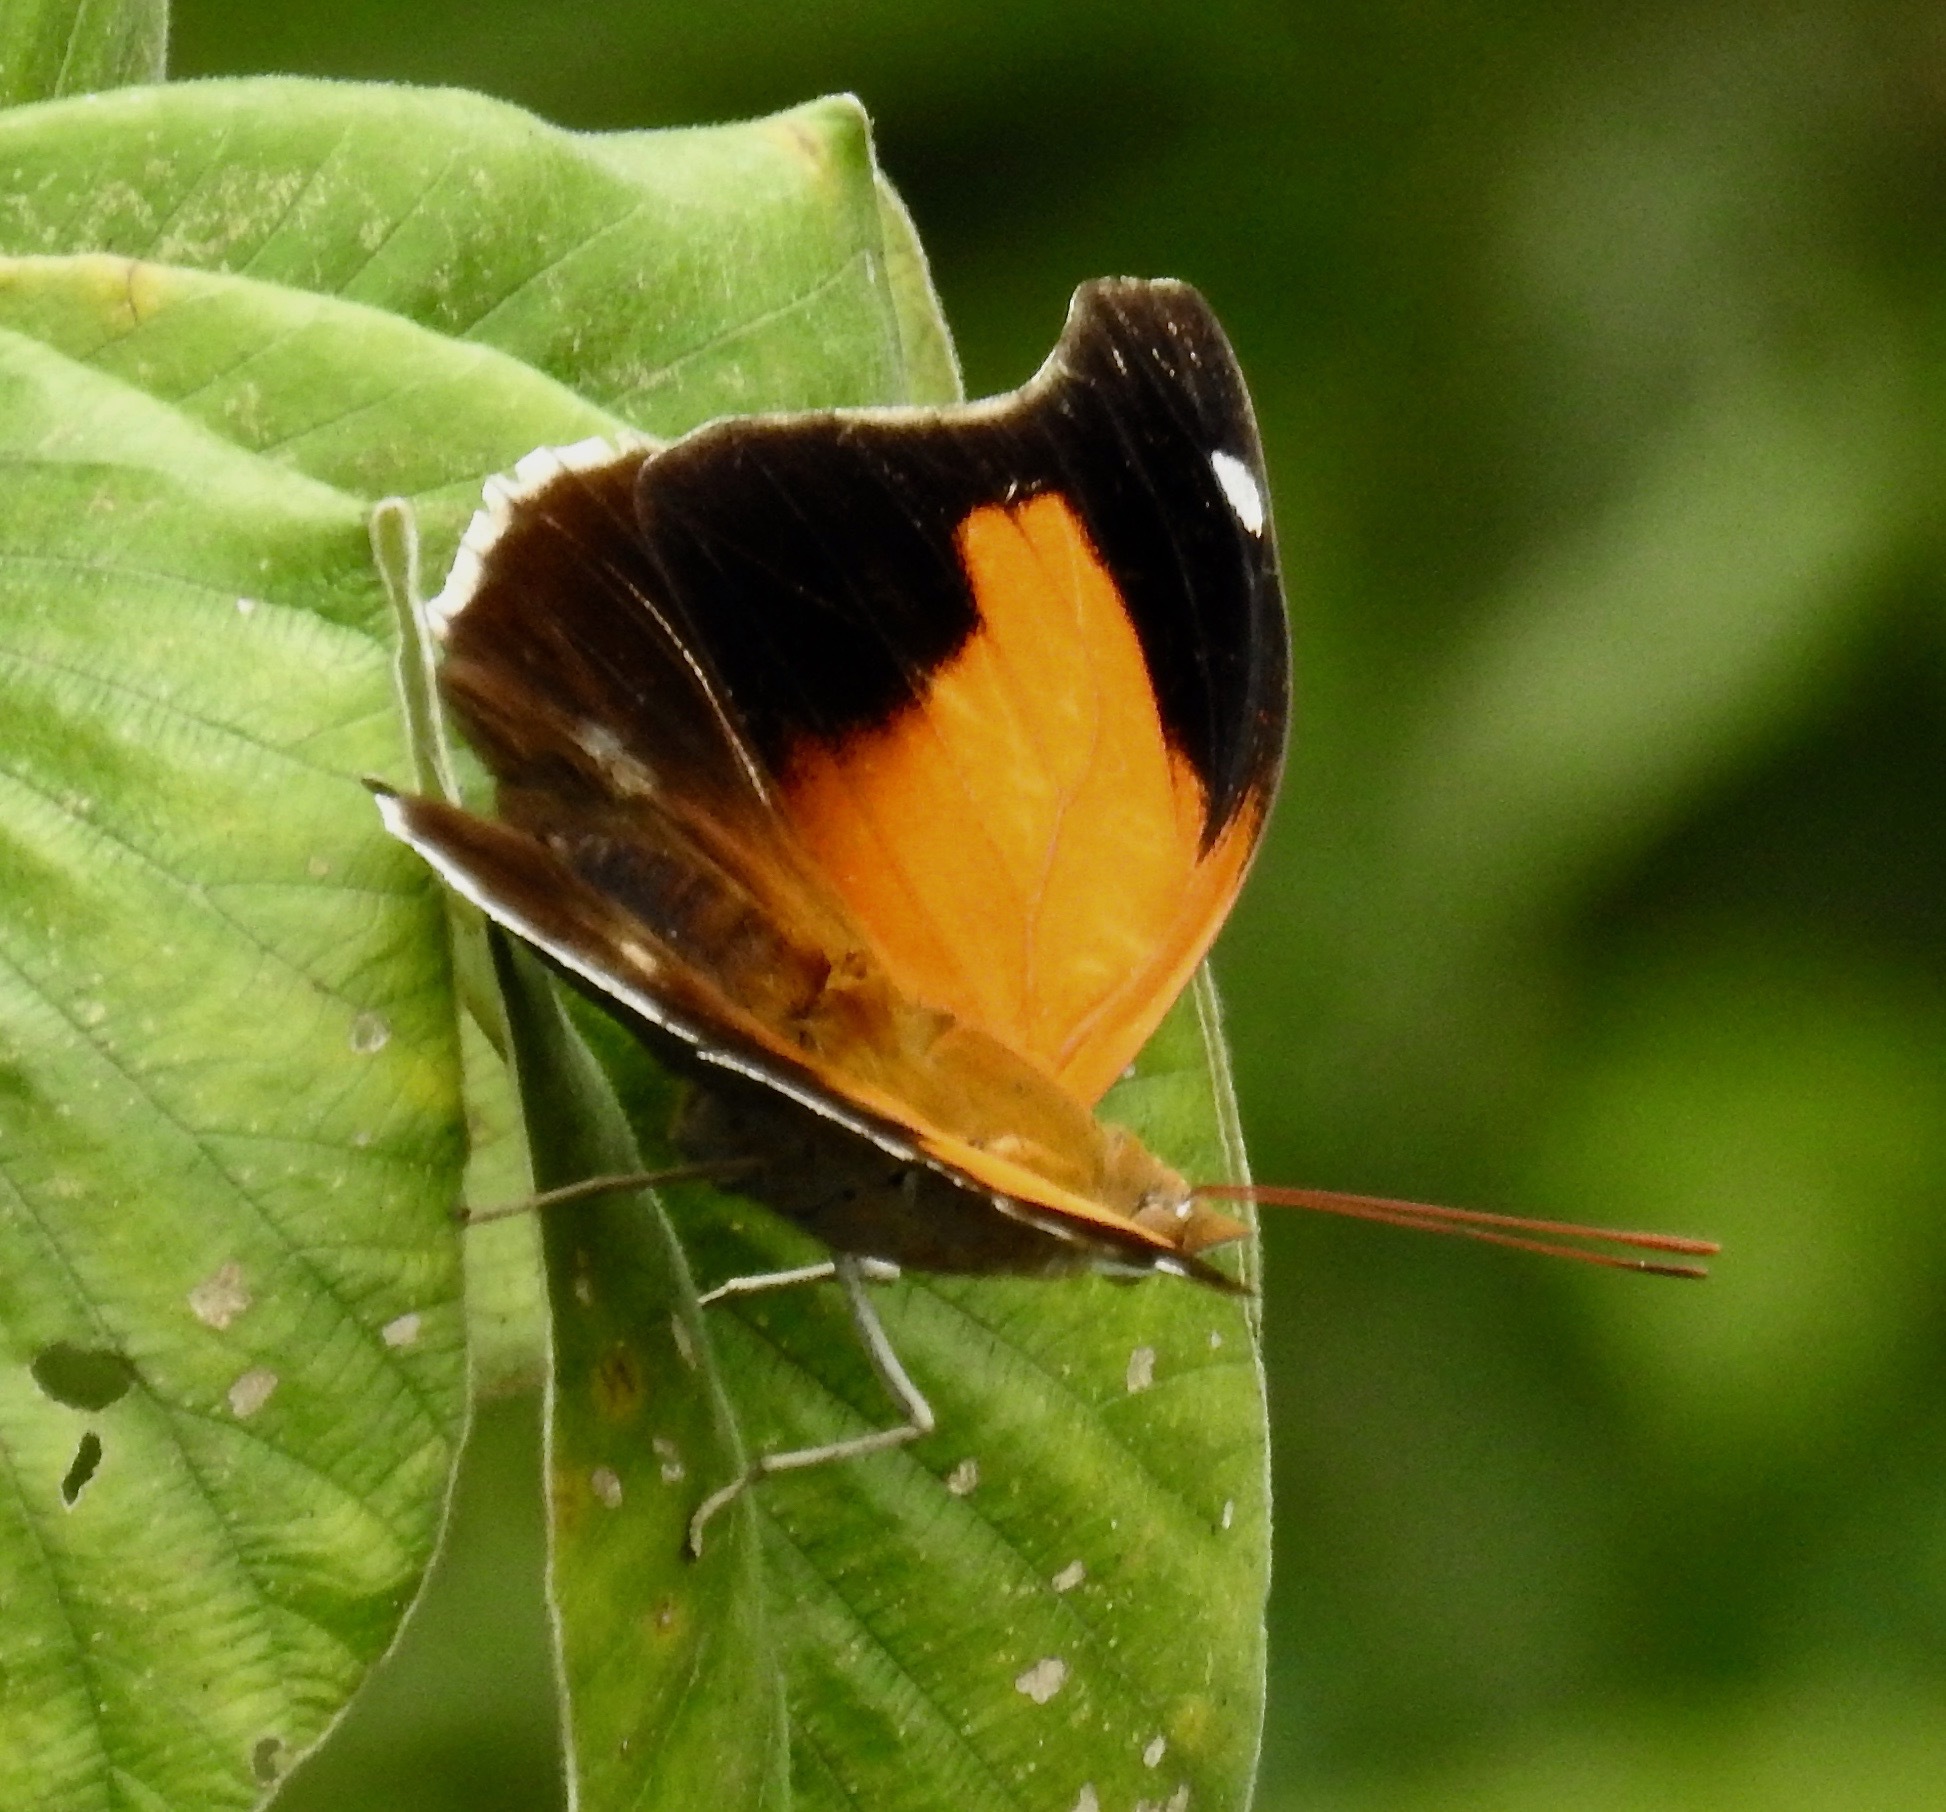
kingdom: Animalia
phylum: Arthropoda
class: Insecta
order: Lepidoptera
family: Nymphalidae
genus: Historis
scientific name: Historis odius
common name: Orion cecropian
